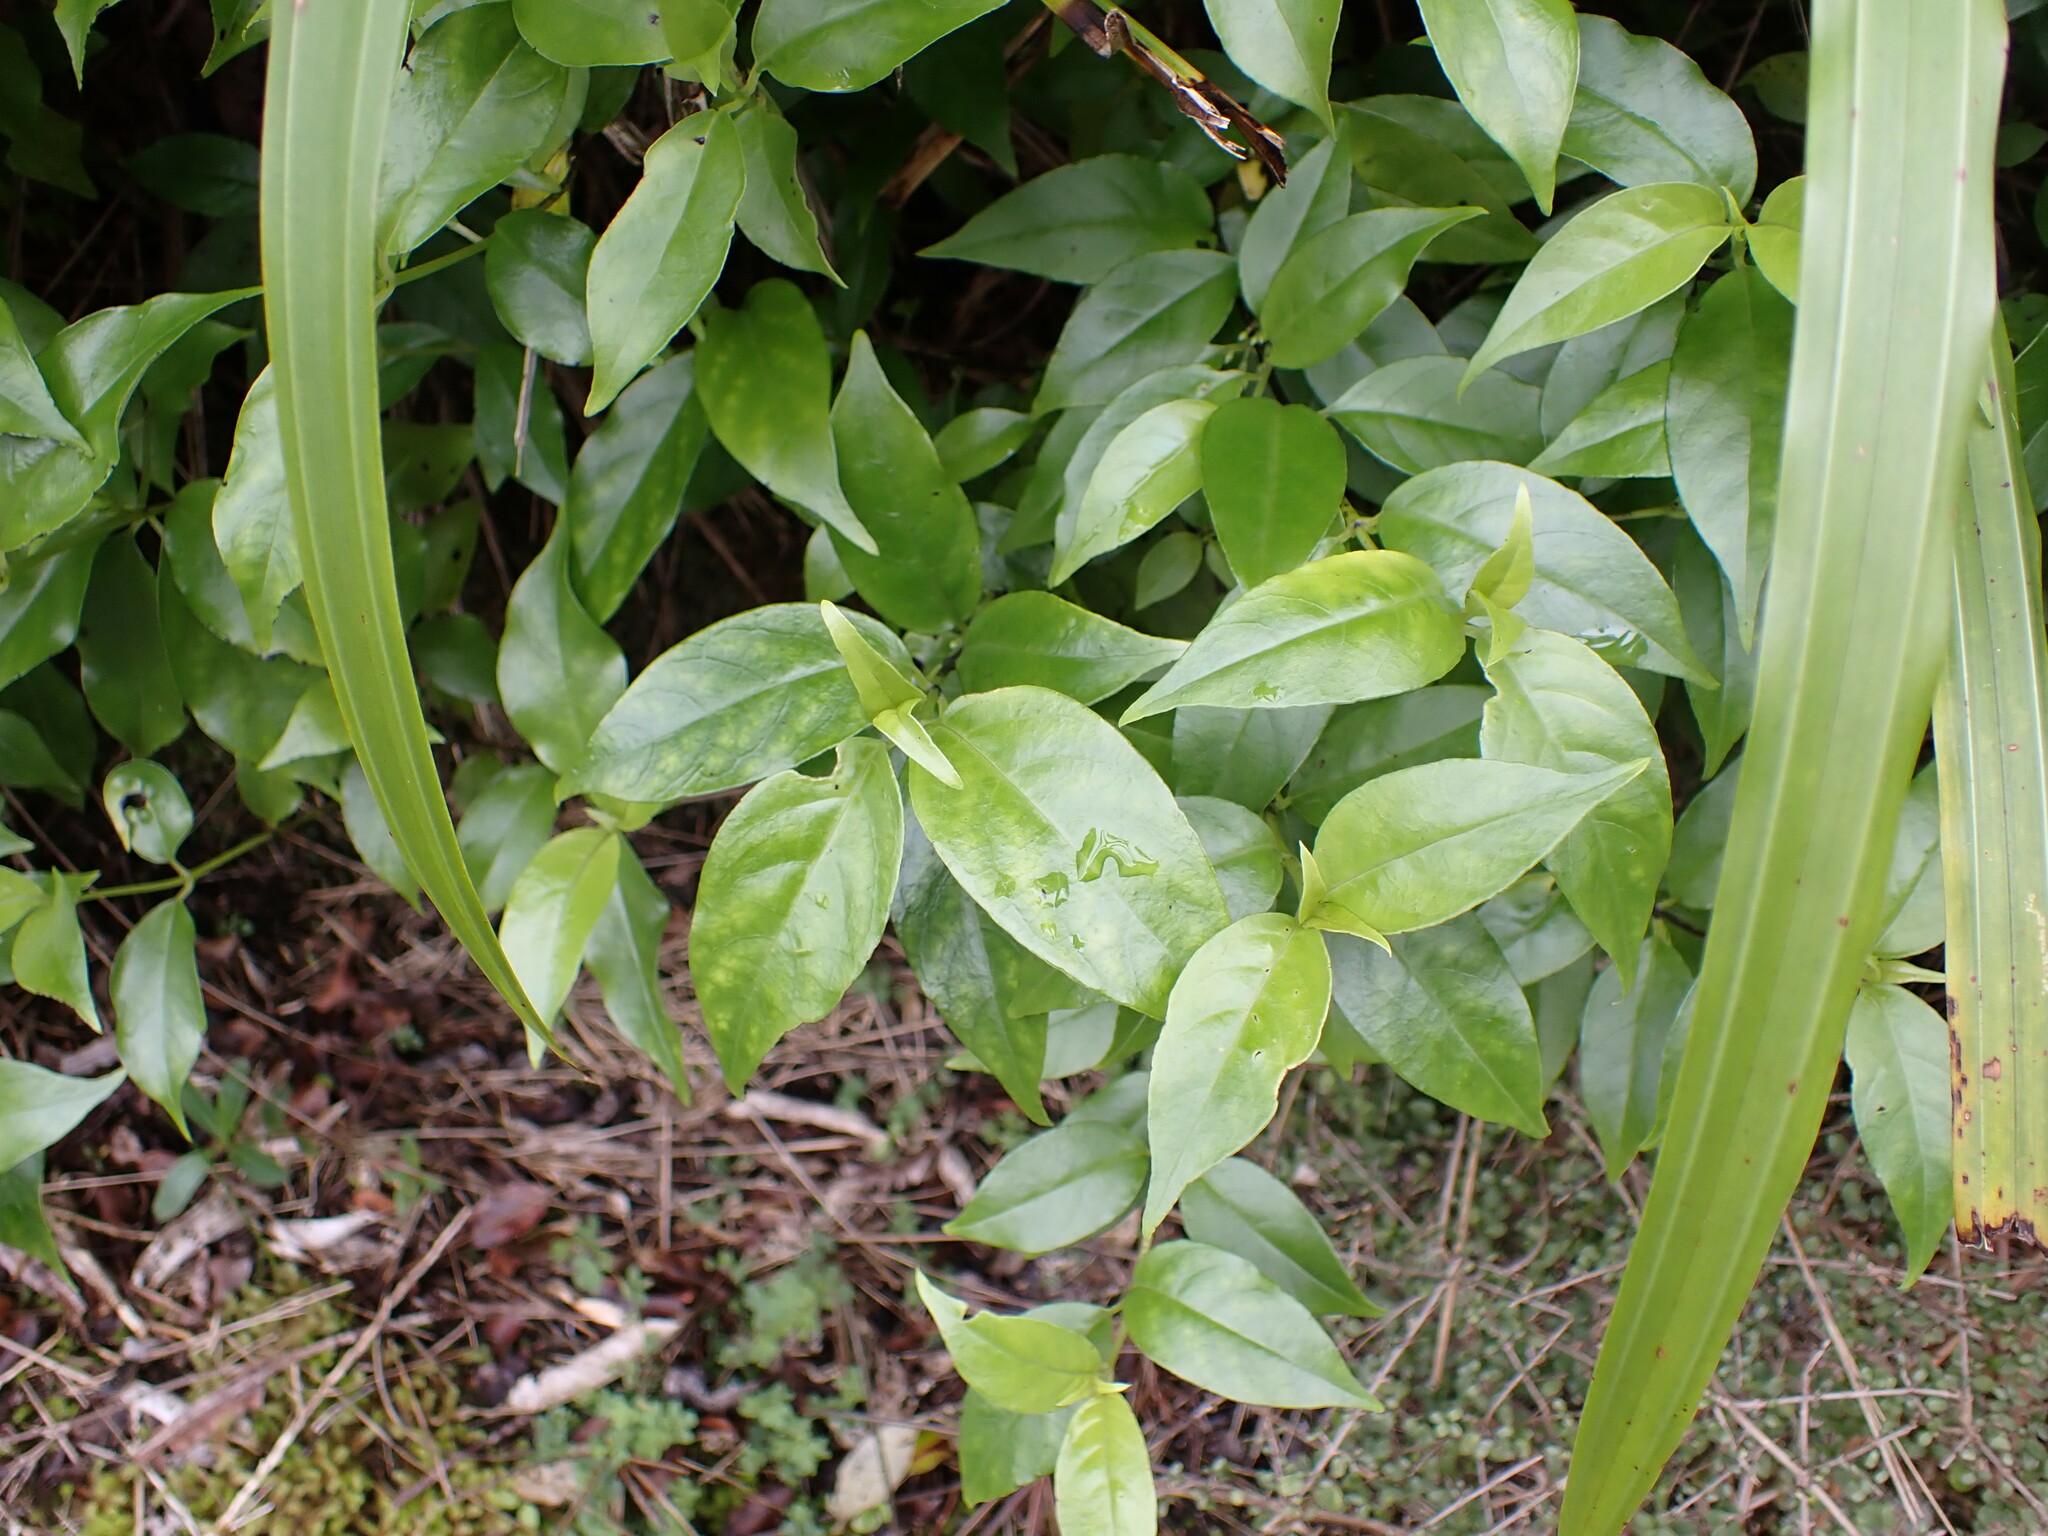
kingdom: Plantae
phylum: Tracheophyta
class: Magnoliopsida
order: Gentianales
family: Loganiaceae
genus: Geniostoma
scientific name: Geniostoma ligustrifolium
